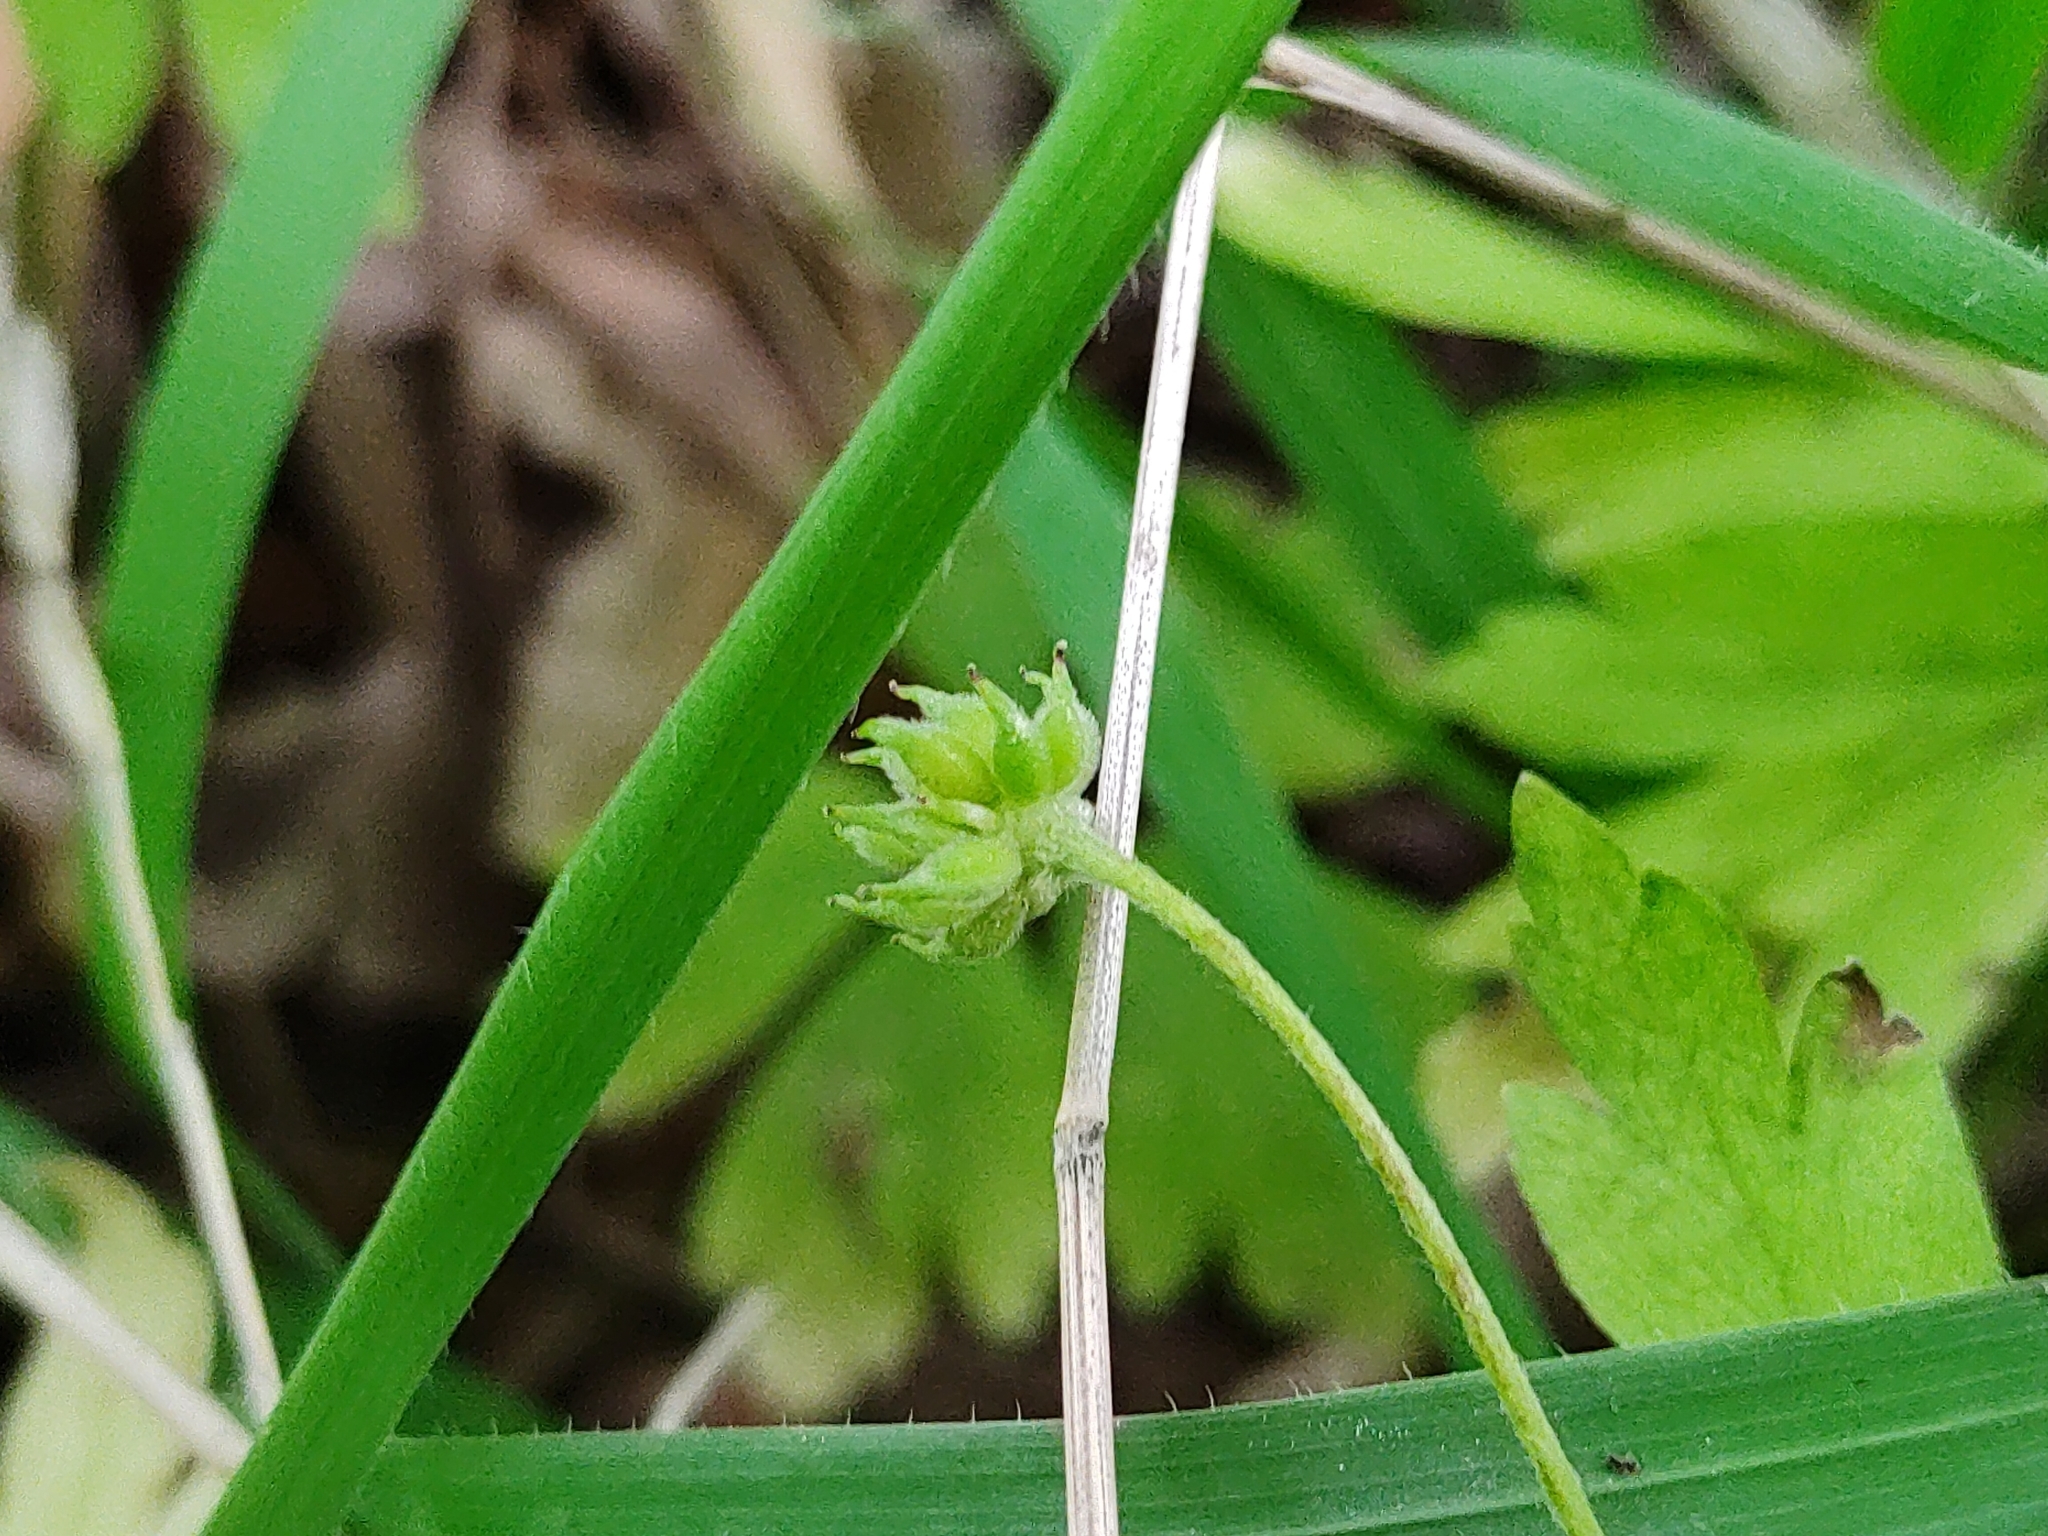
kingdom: Plantae
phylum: Tracheophyta
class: Magnoliopsida
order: Ranunculales
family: Ranunculaceae
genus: Anemone
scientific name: Anemone nemorosa
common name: Wood anemone
